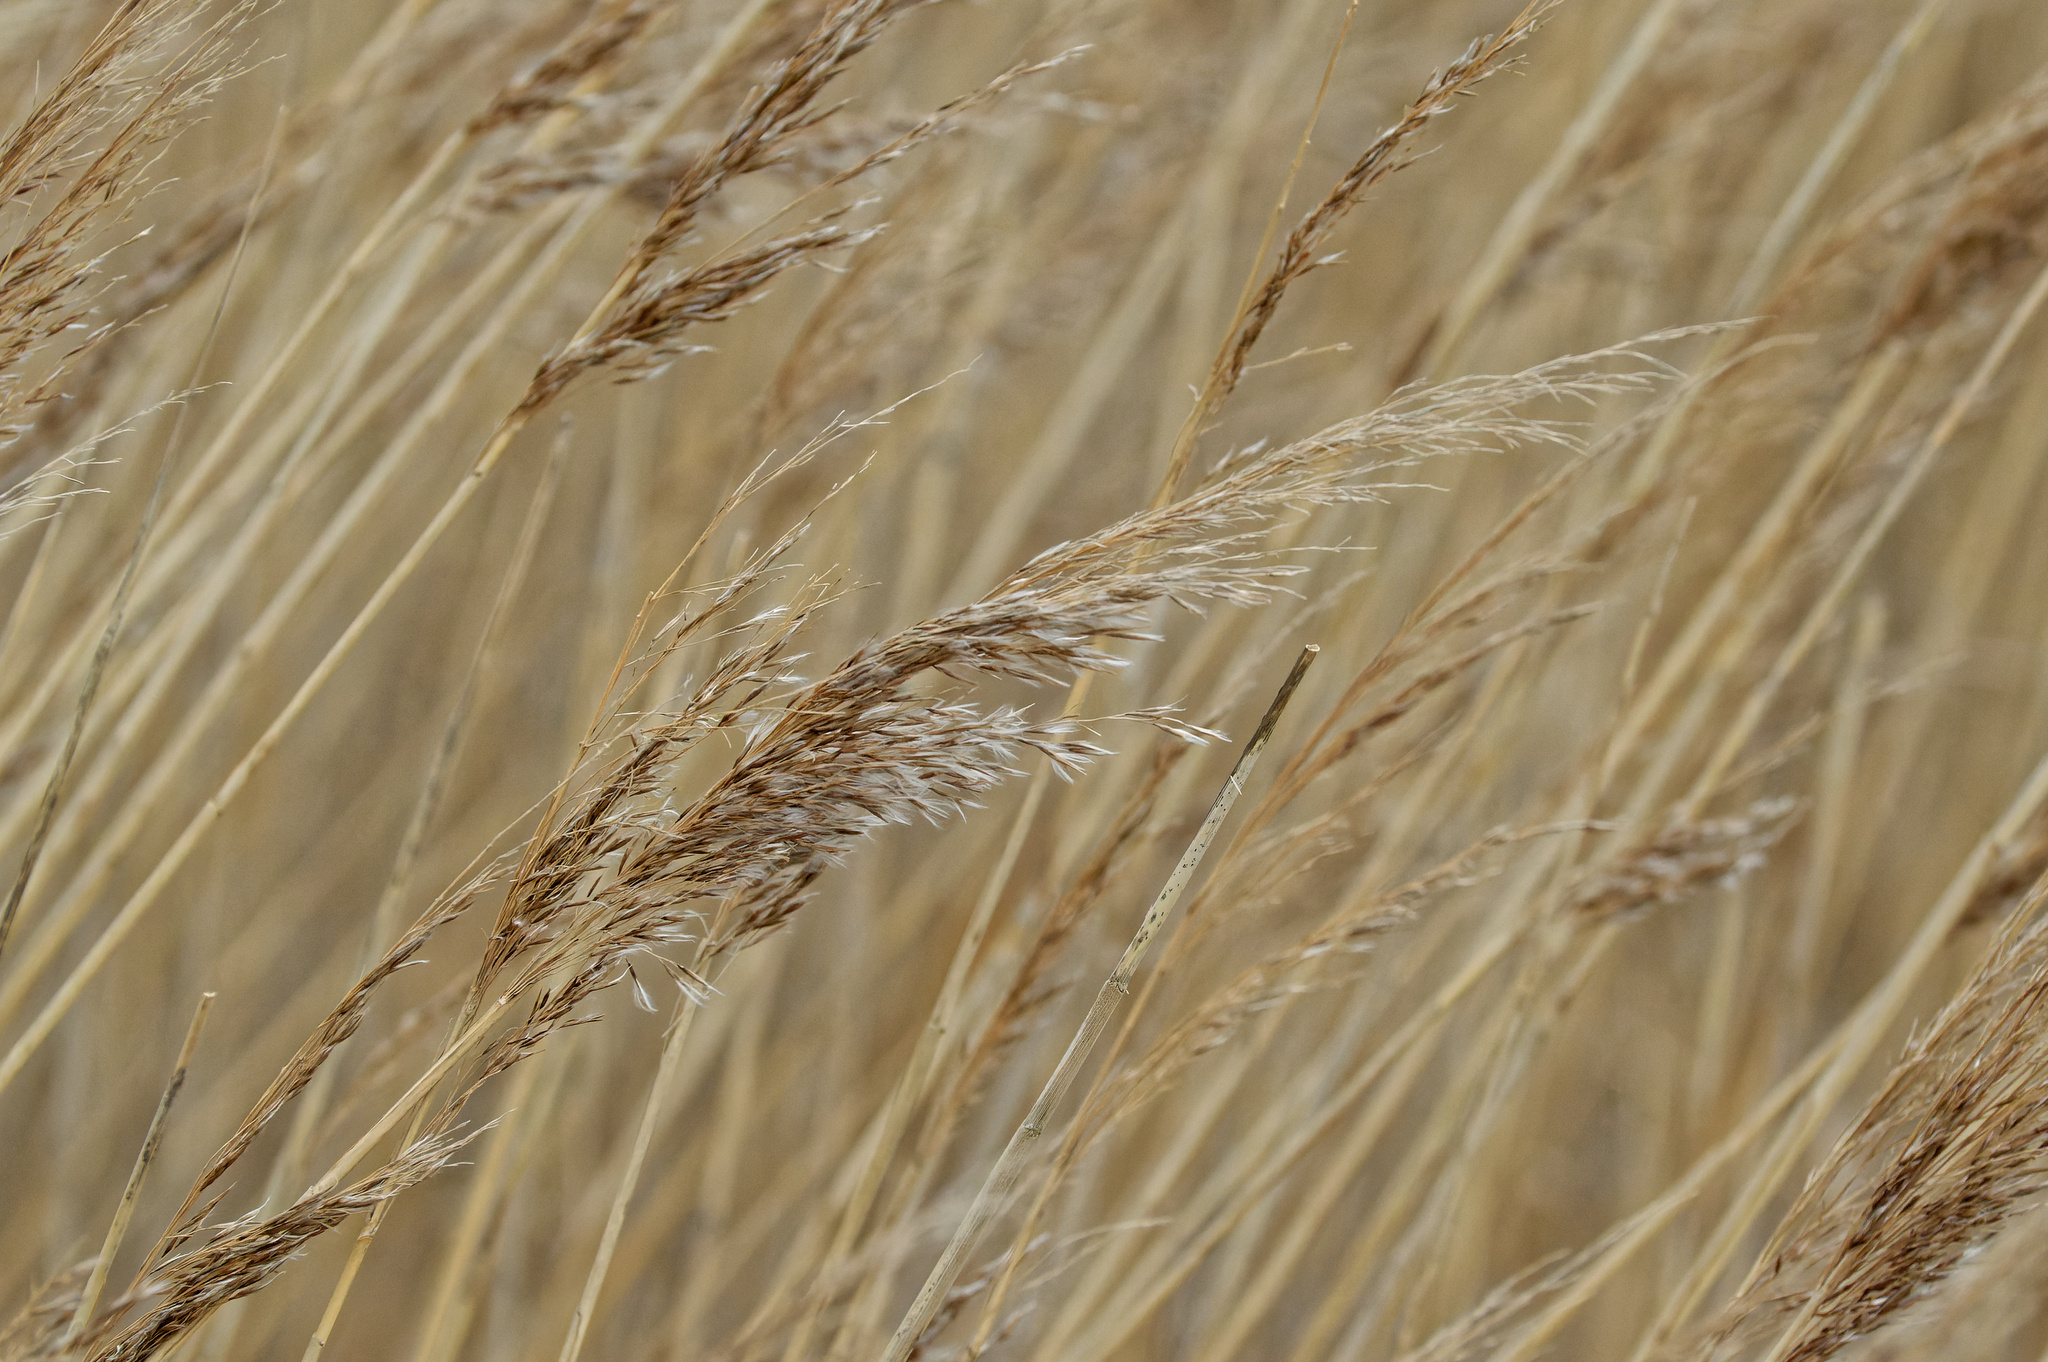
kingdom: Plantae
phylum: Tracheophyta
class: Liliopsida
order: Poales
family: Poaceae
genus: Phragmites
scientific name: Phragmites australis
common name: Common reed
